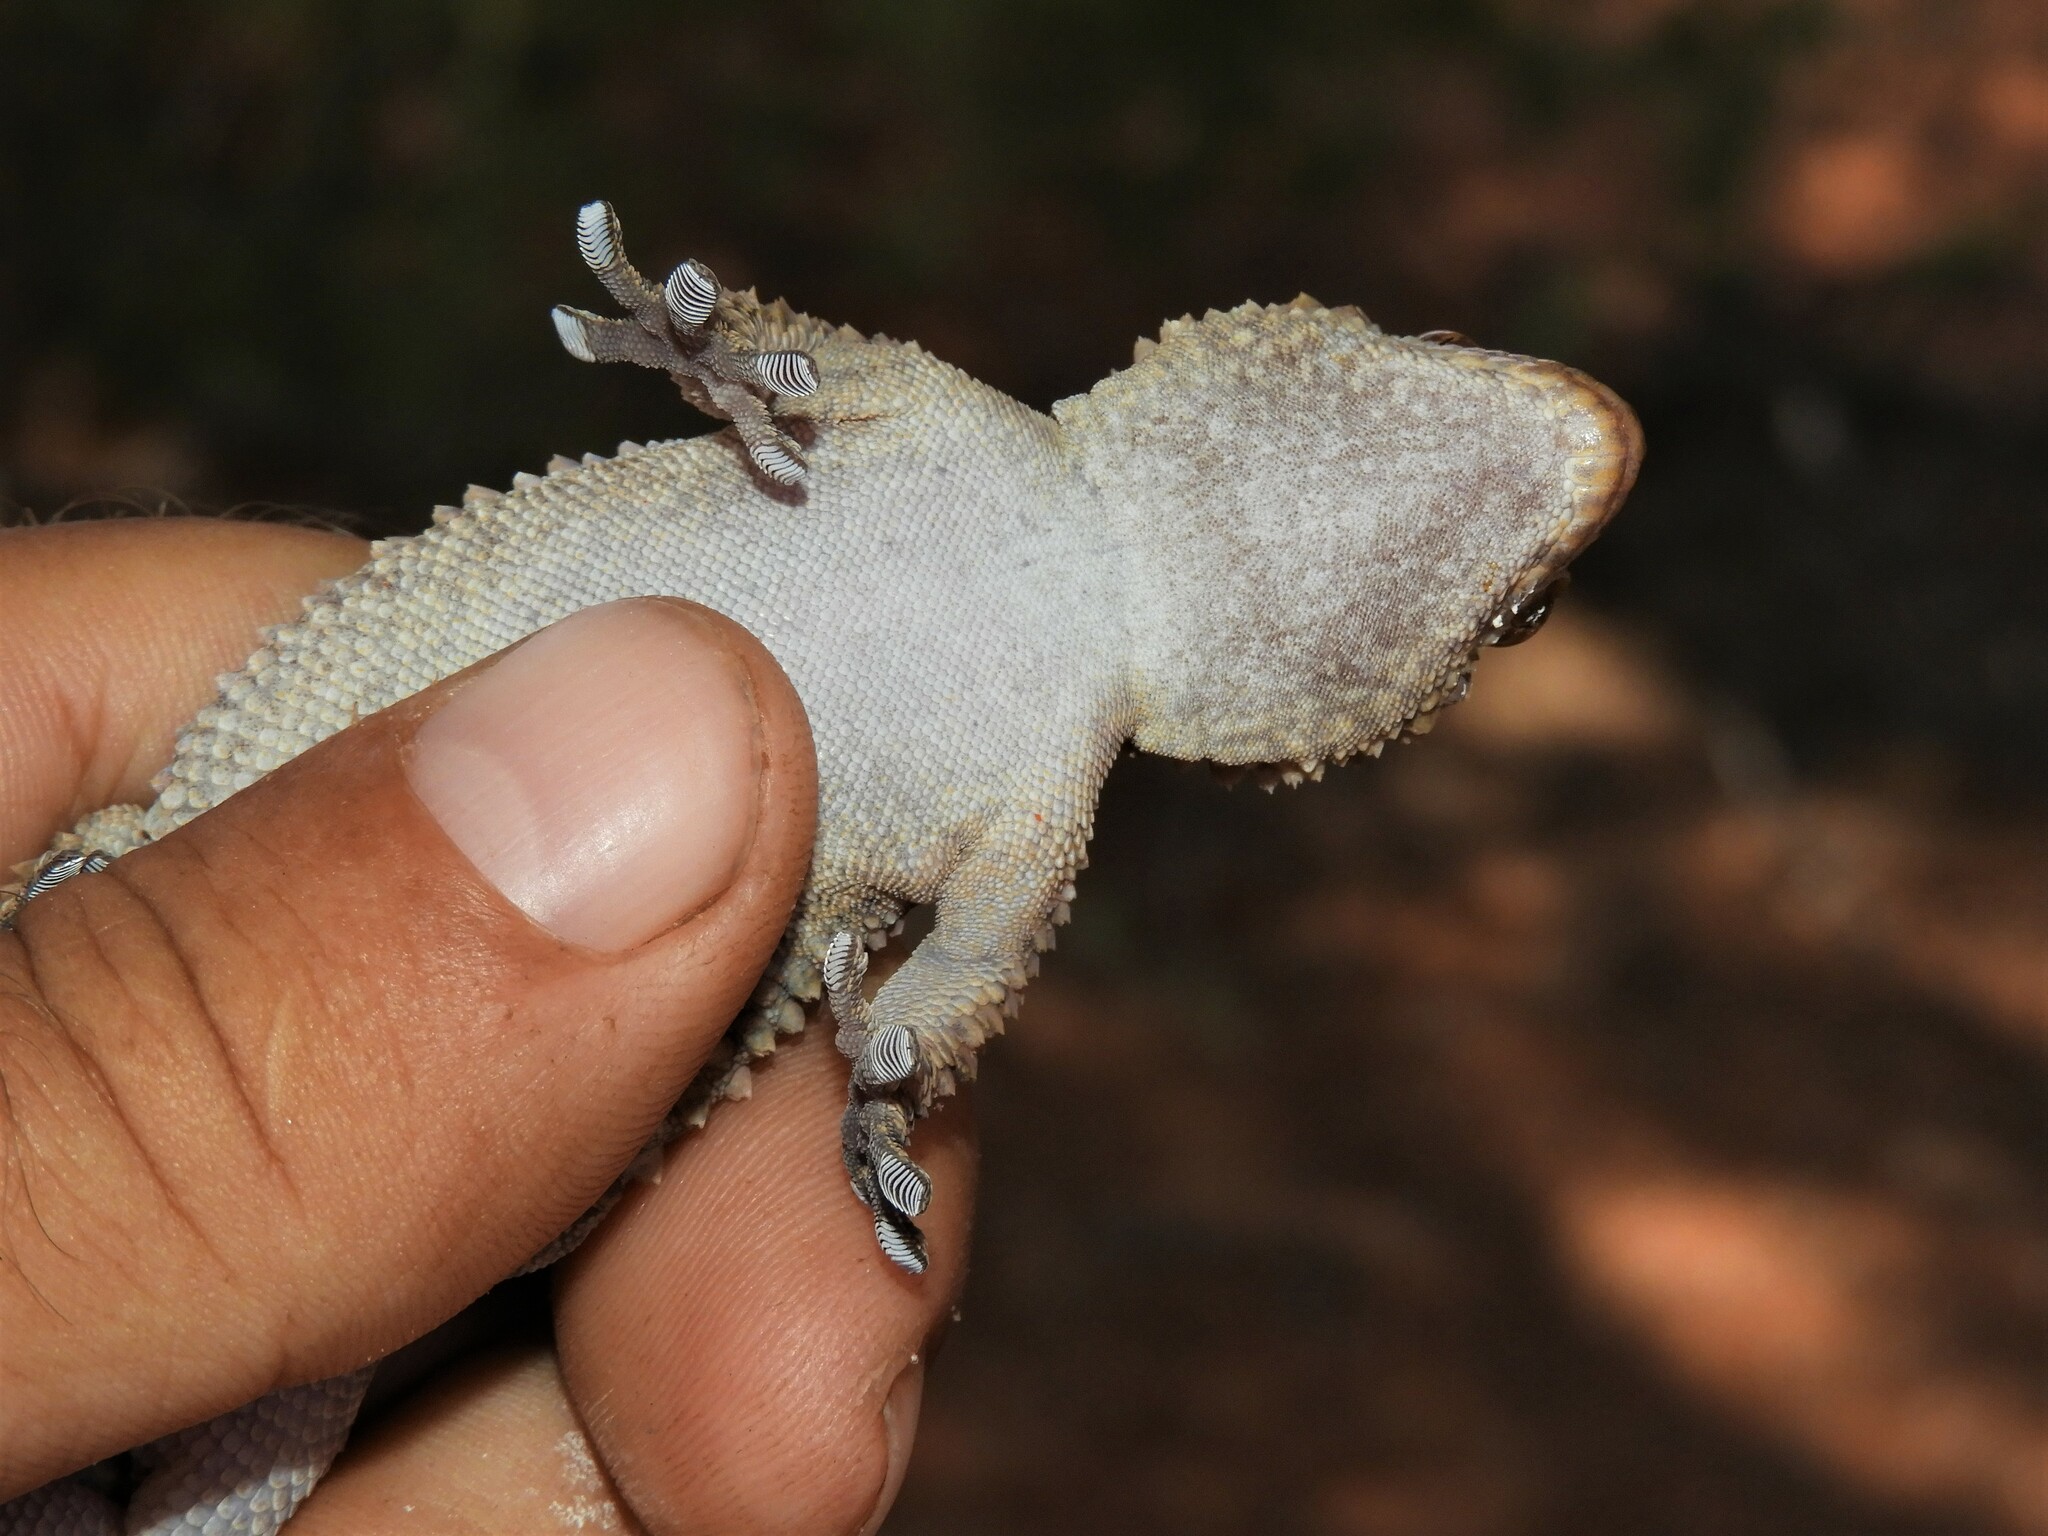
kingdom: Animalia
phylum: Chordata
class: Squamata
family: Gekkonidae
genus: Chondrodactylus
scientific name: Chondrodactylus bibronii
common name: Bibron's gecko
